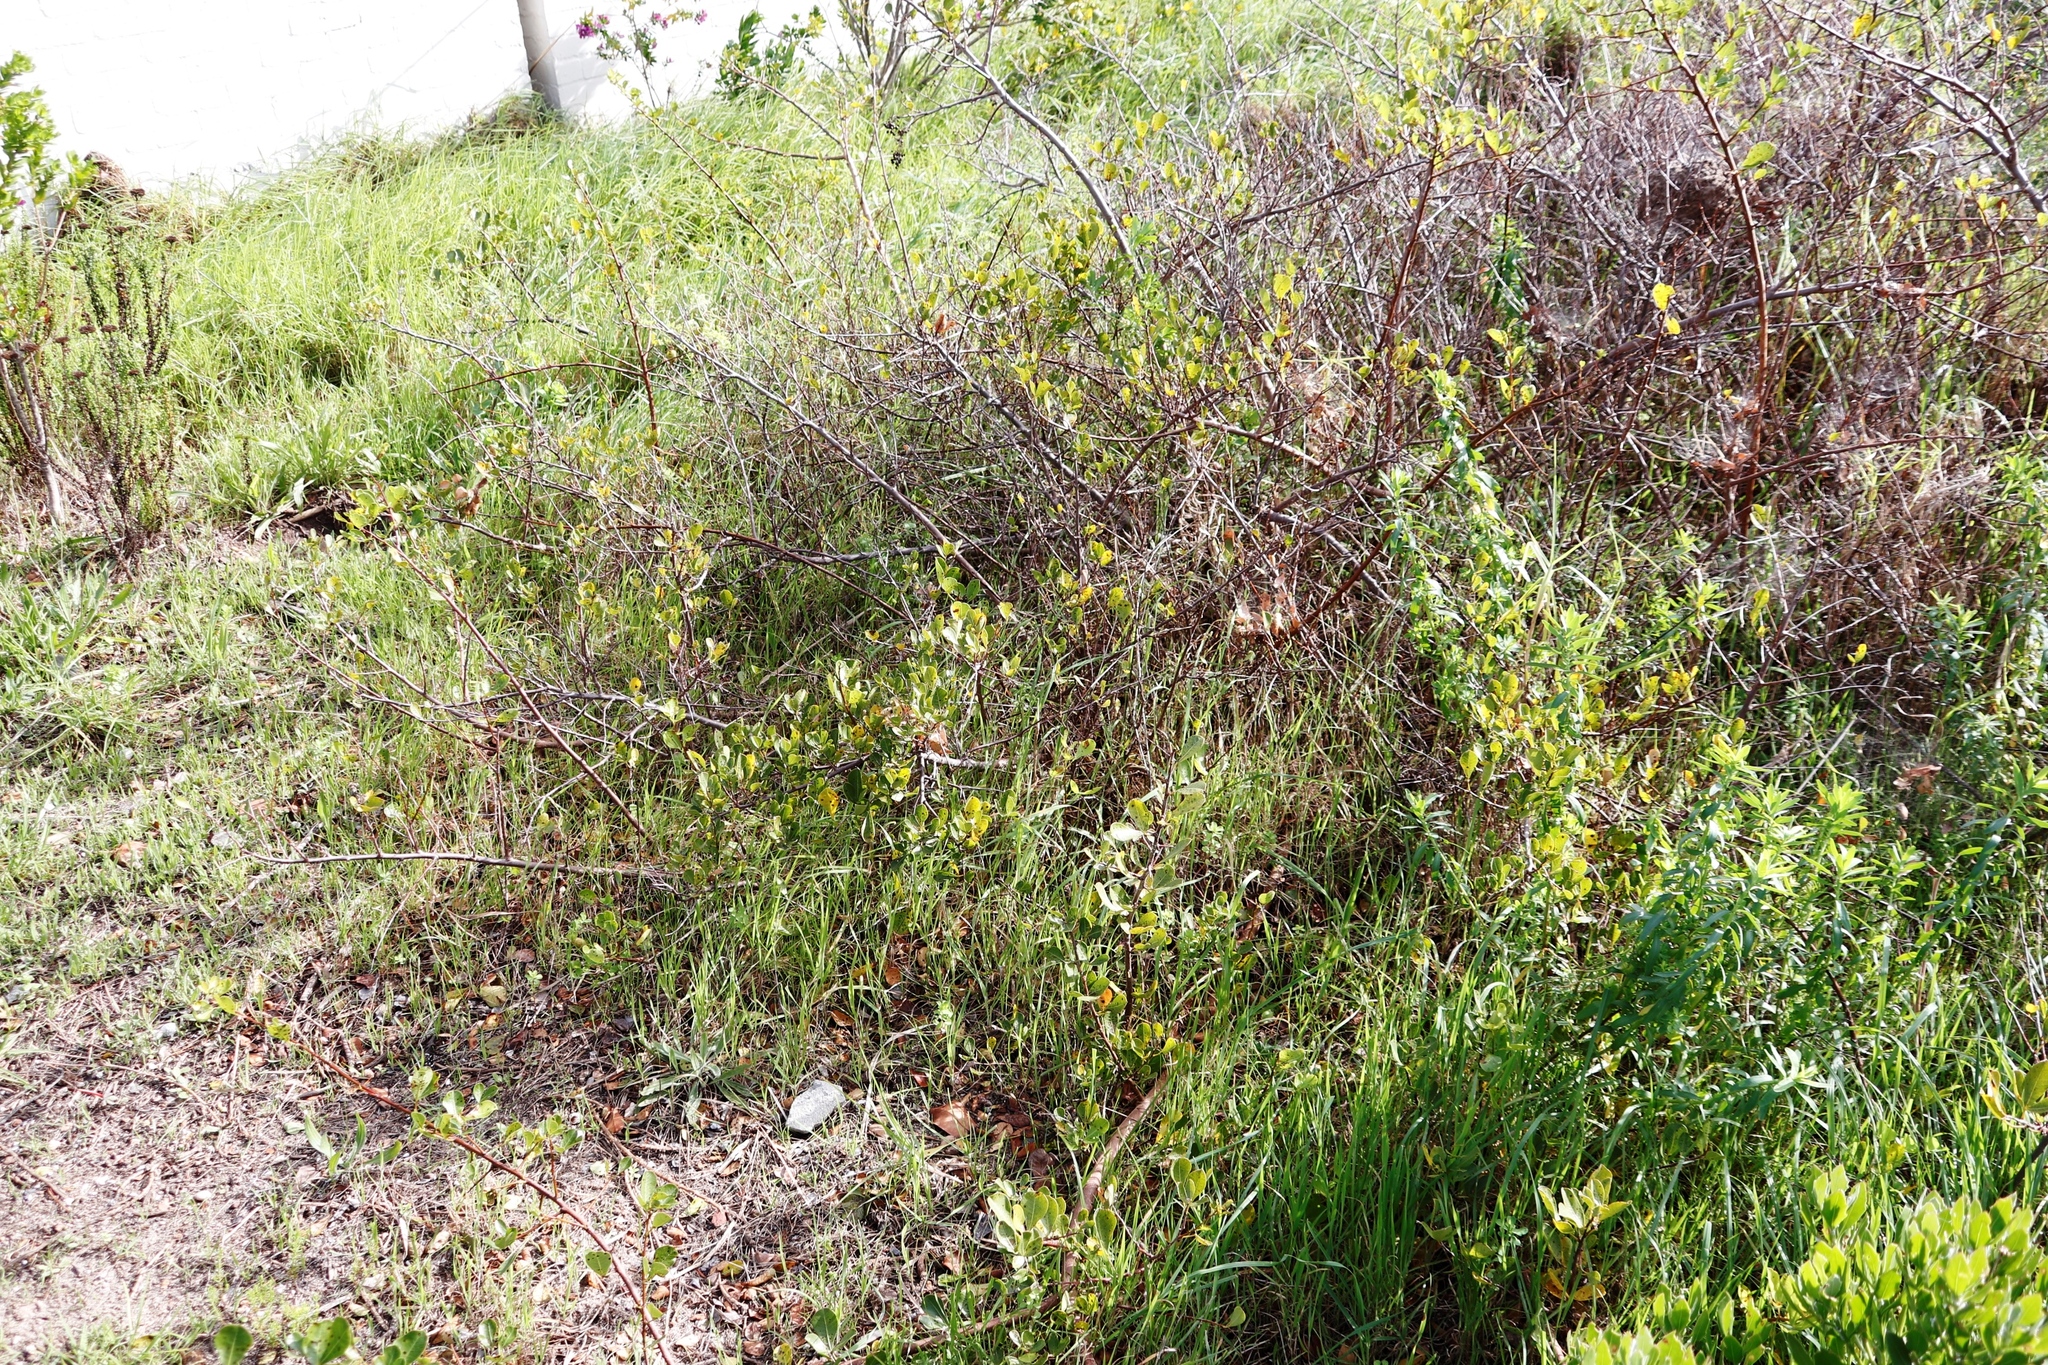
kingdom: Plantae
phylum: Tracheophyta
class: Magnoliopsida
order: Sapindales
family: Anacardiaceae
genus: Searsia
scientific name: Searsia laevigata
